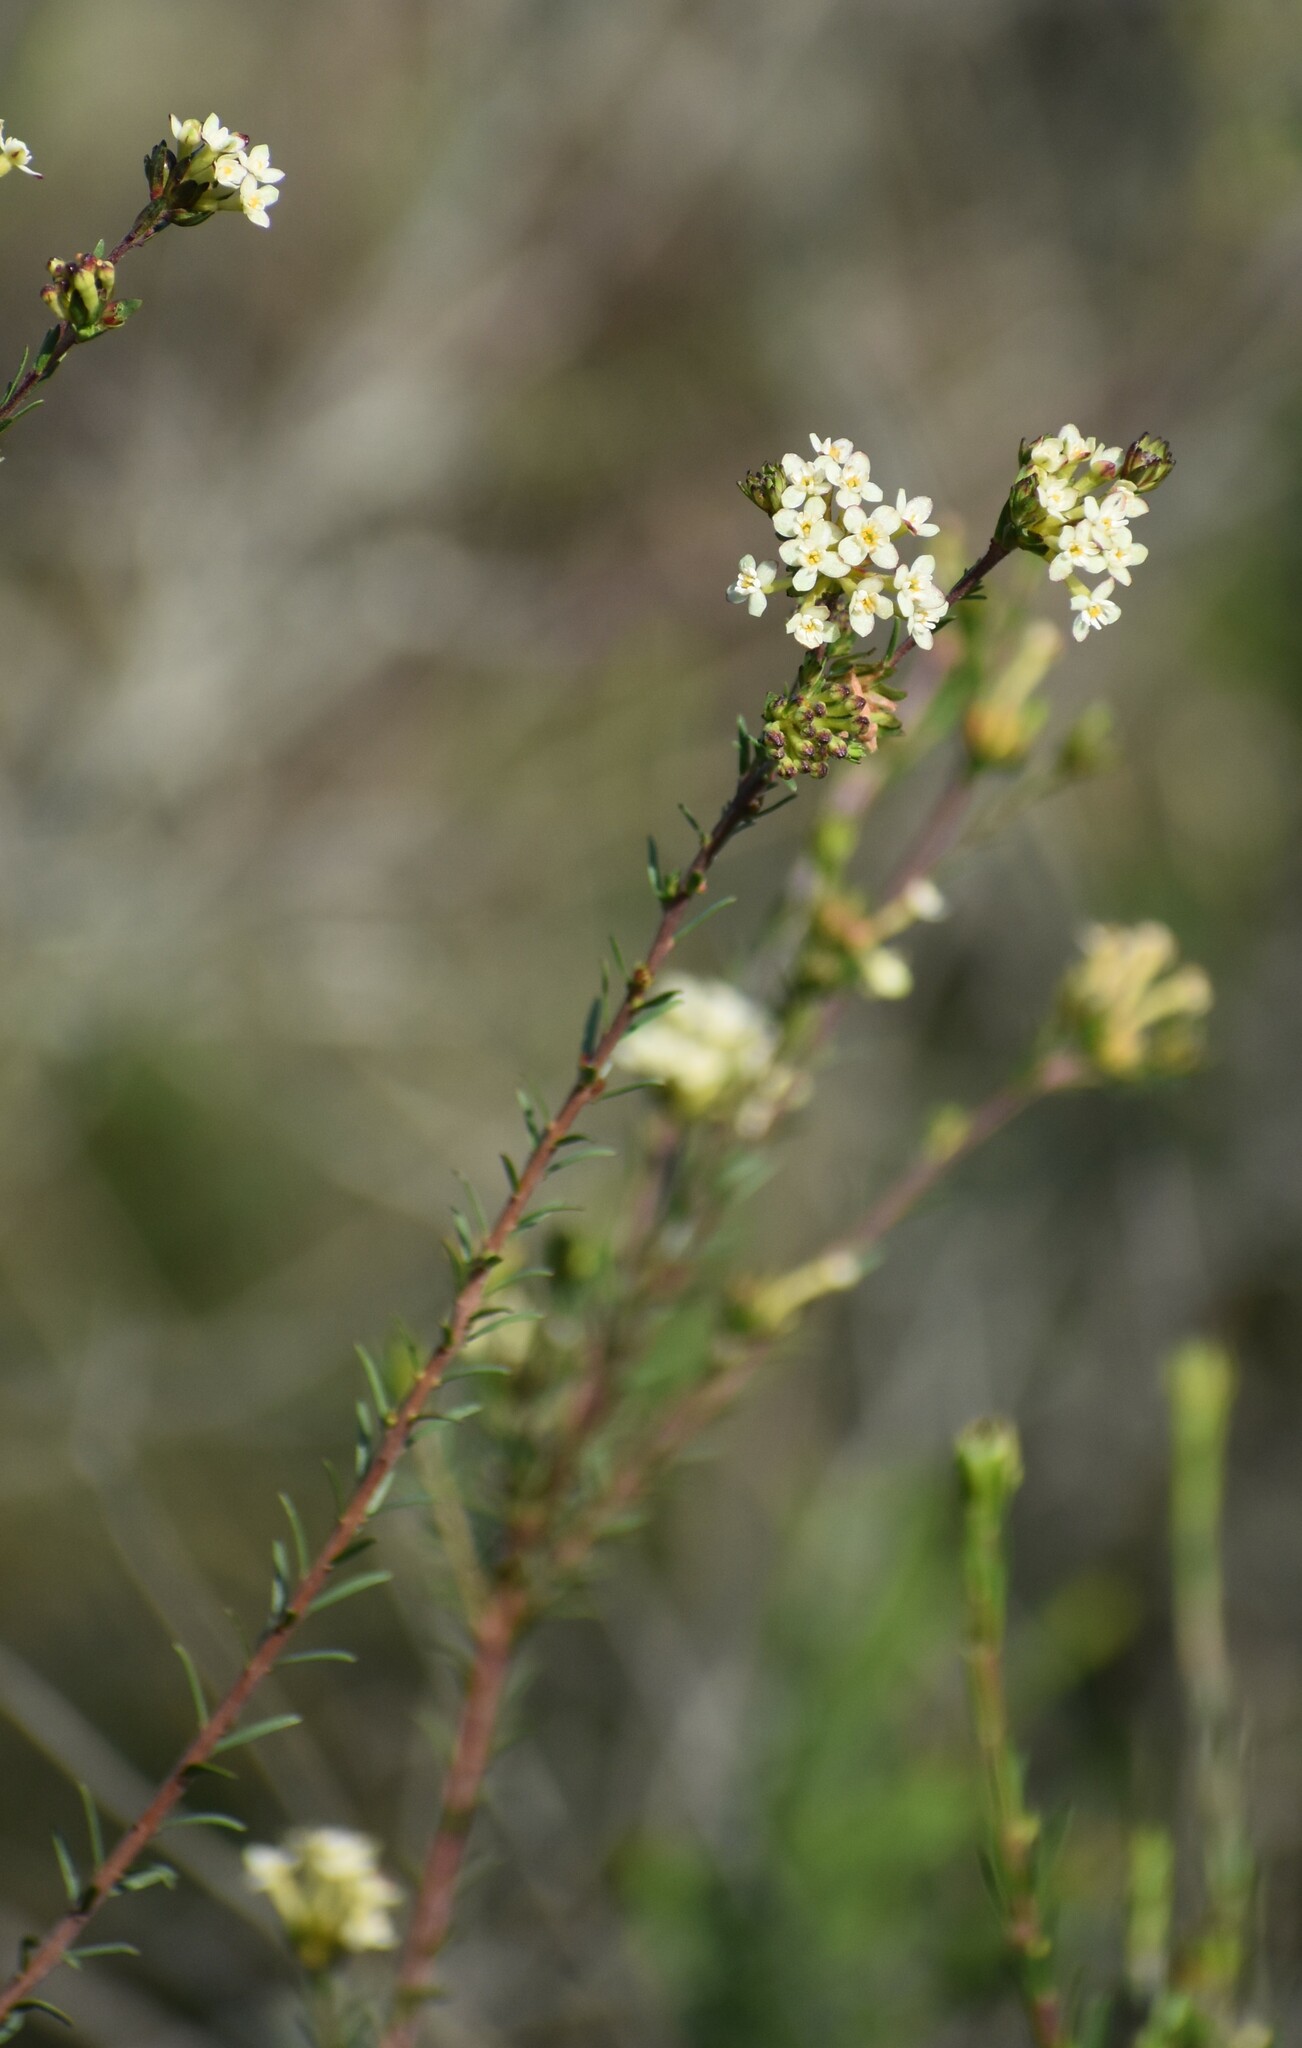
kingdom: Plantae
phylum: Tracheophyta
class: Magnoliopsida
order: Malvales
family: Thymelaeaceae
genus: Gnidia
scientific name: Gnidia squarrosa
